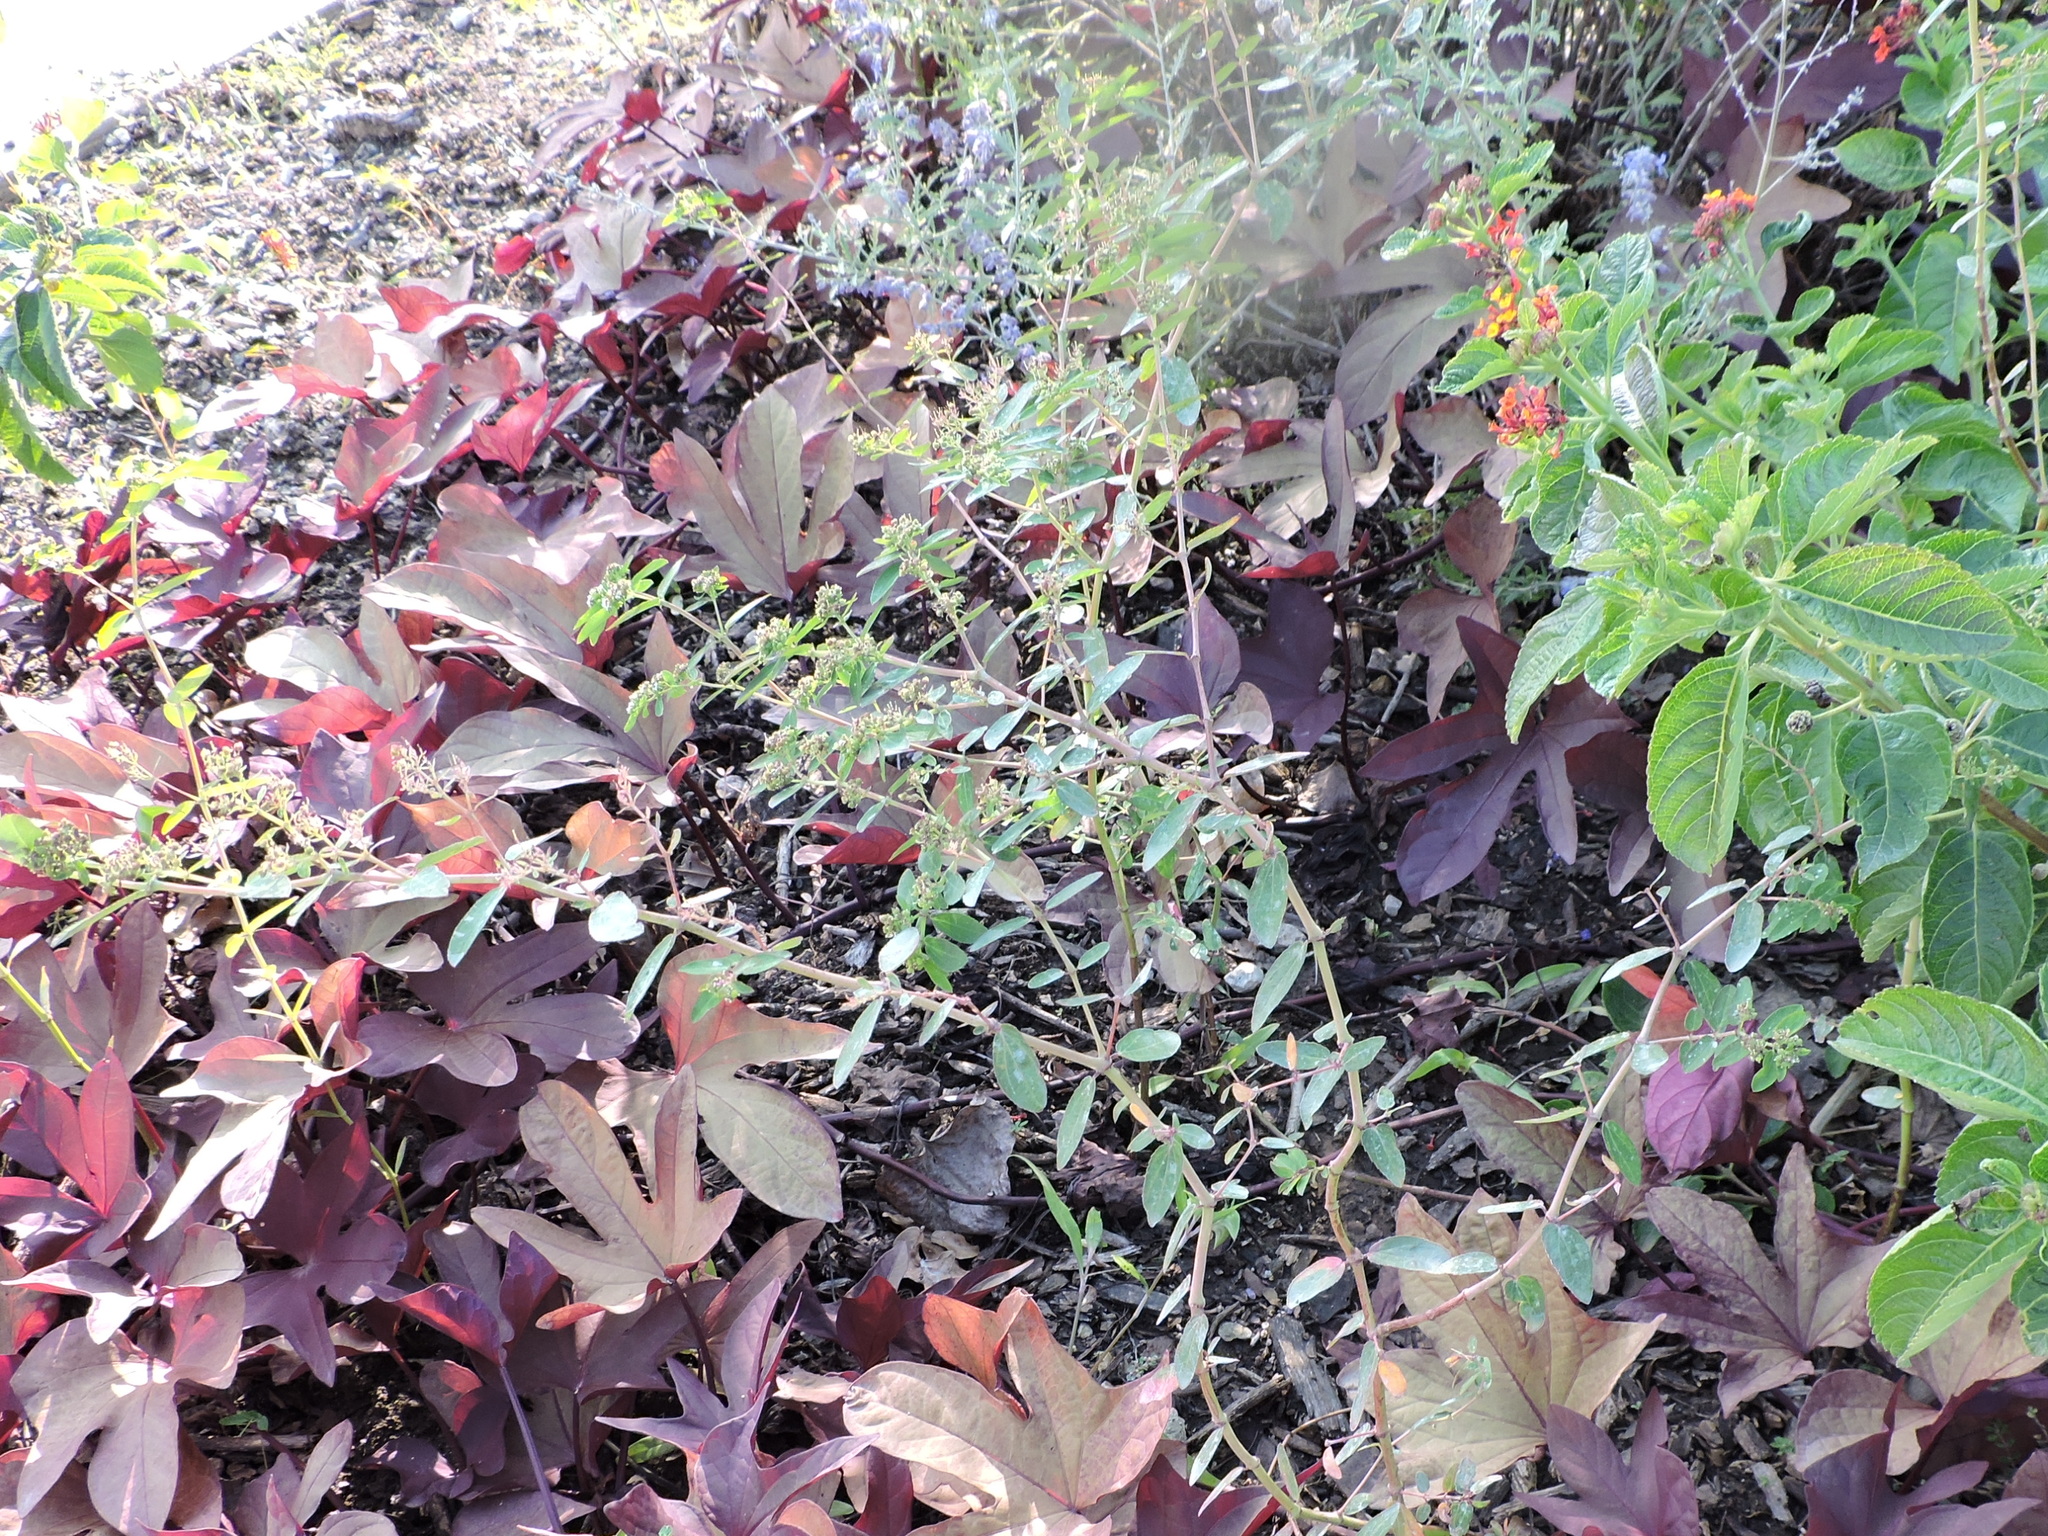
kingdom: Plantae
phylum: Tracheophyta
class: Magnoliopsida
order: Malpighiales
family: Euphorbiaceae
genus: Euphorbia
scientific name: Euphorbia hypericifolia
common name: Graceful sandmat
